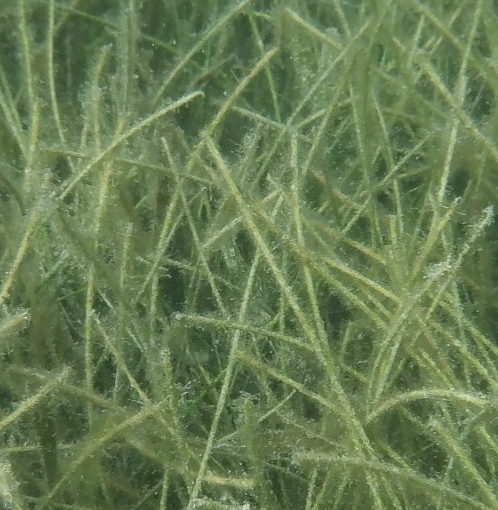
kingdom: Plantae
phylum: Tracheophyta
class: Liliopsida
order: Alismatales
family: Cymodoceaceae
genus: Syringodium
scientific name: Syringodium filiforme
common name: Manatee grass
